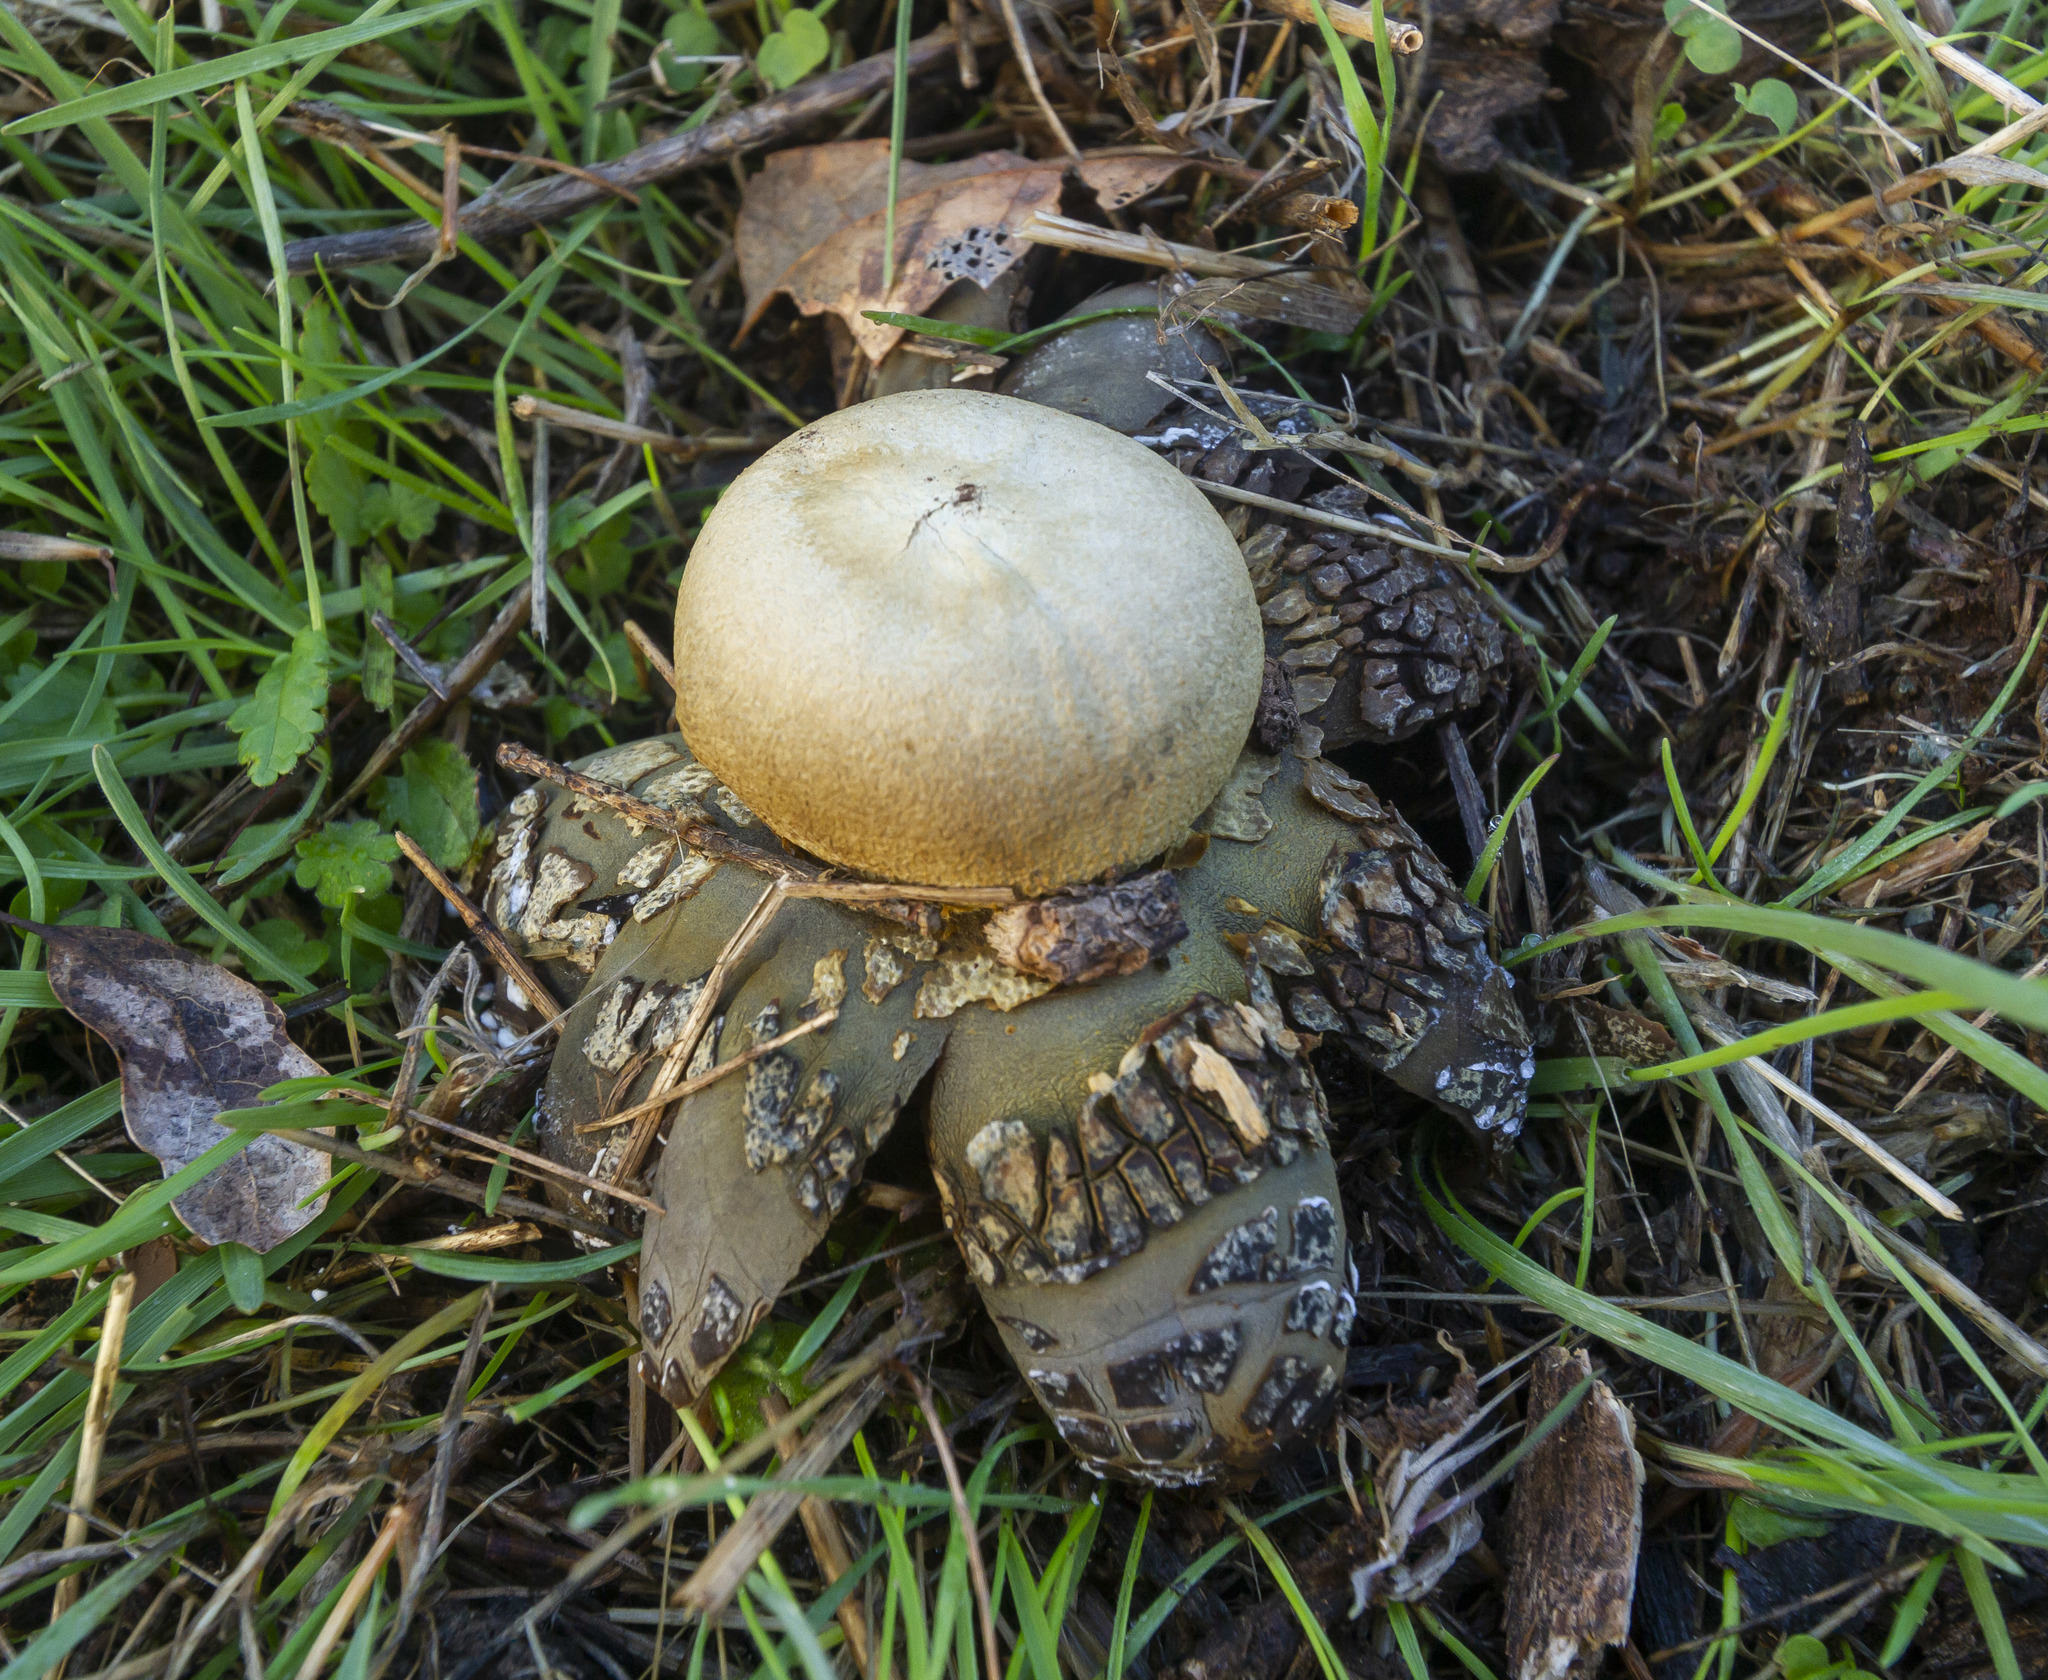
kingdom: Fungi
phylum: Basidiomycota
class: Agaricomycetes
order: Boletales
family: Diplocystidiaceae
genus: Astraeus
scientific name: Astraeus hygrometricus
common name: Barometer earthstar
